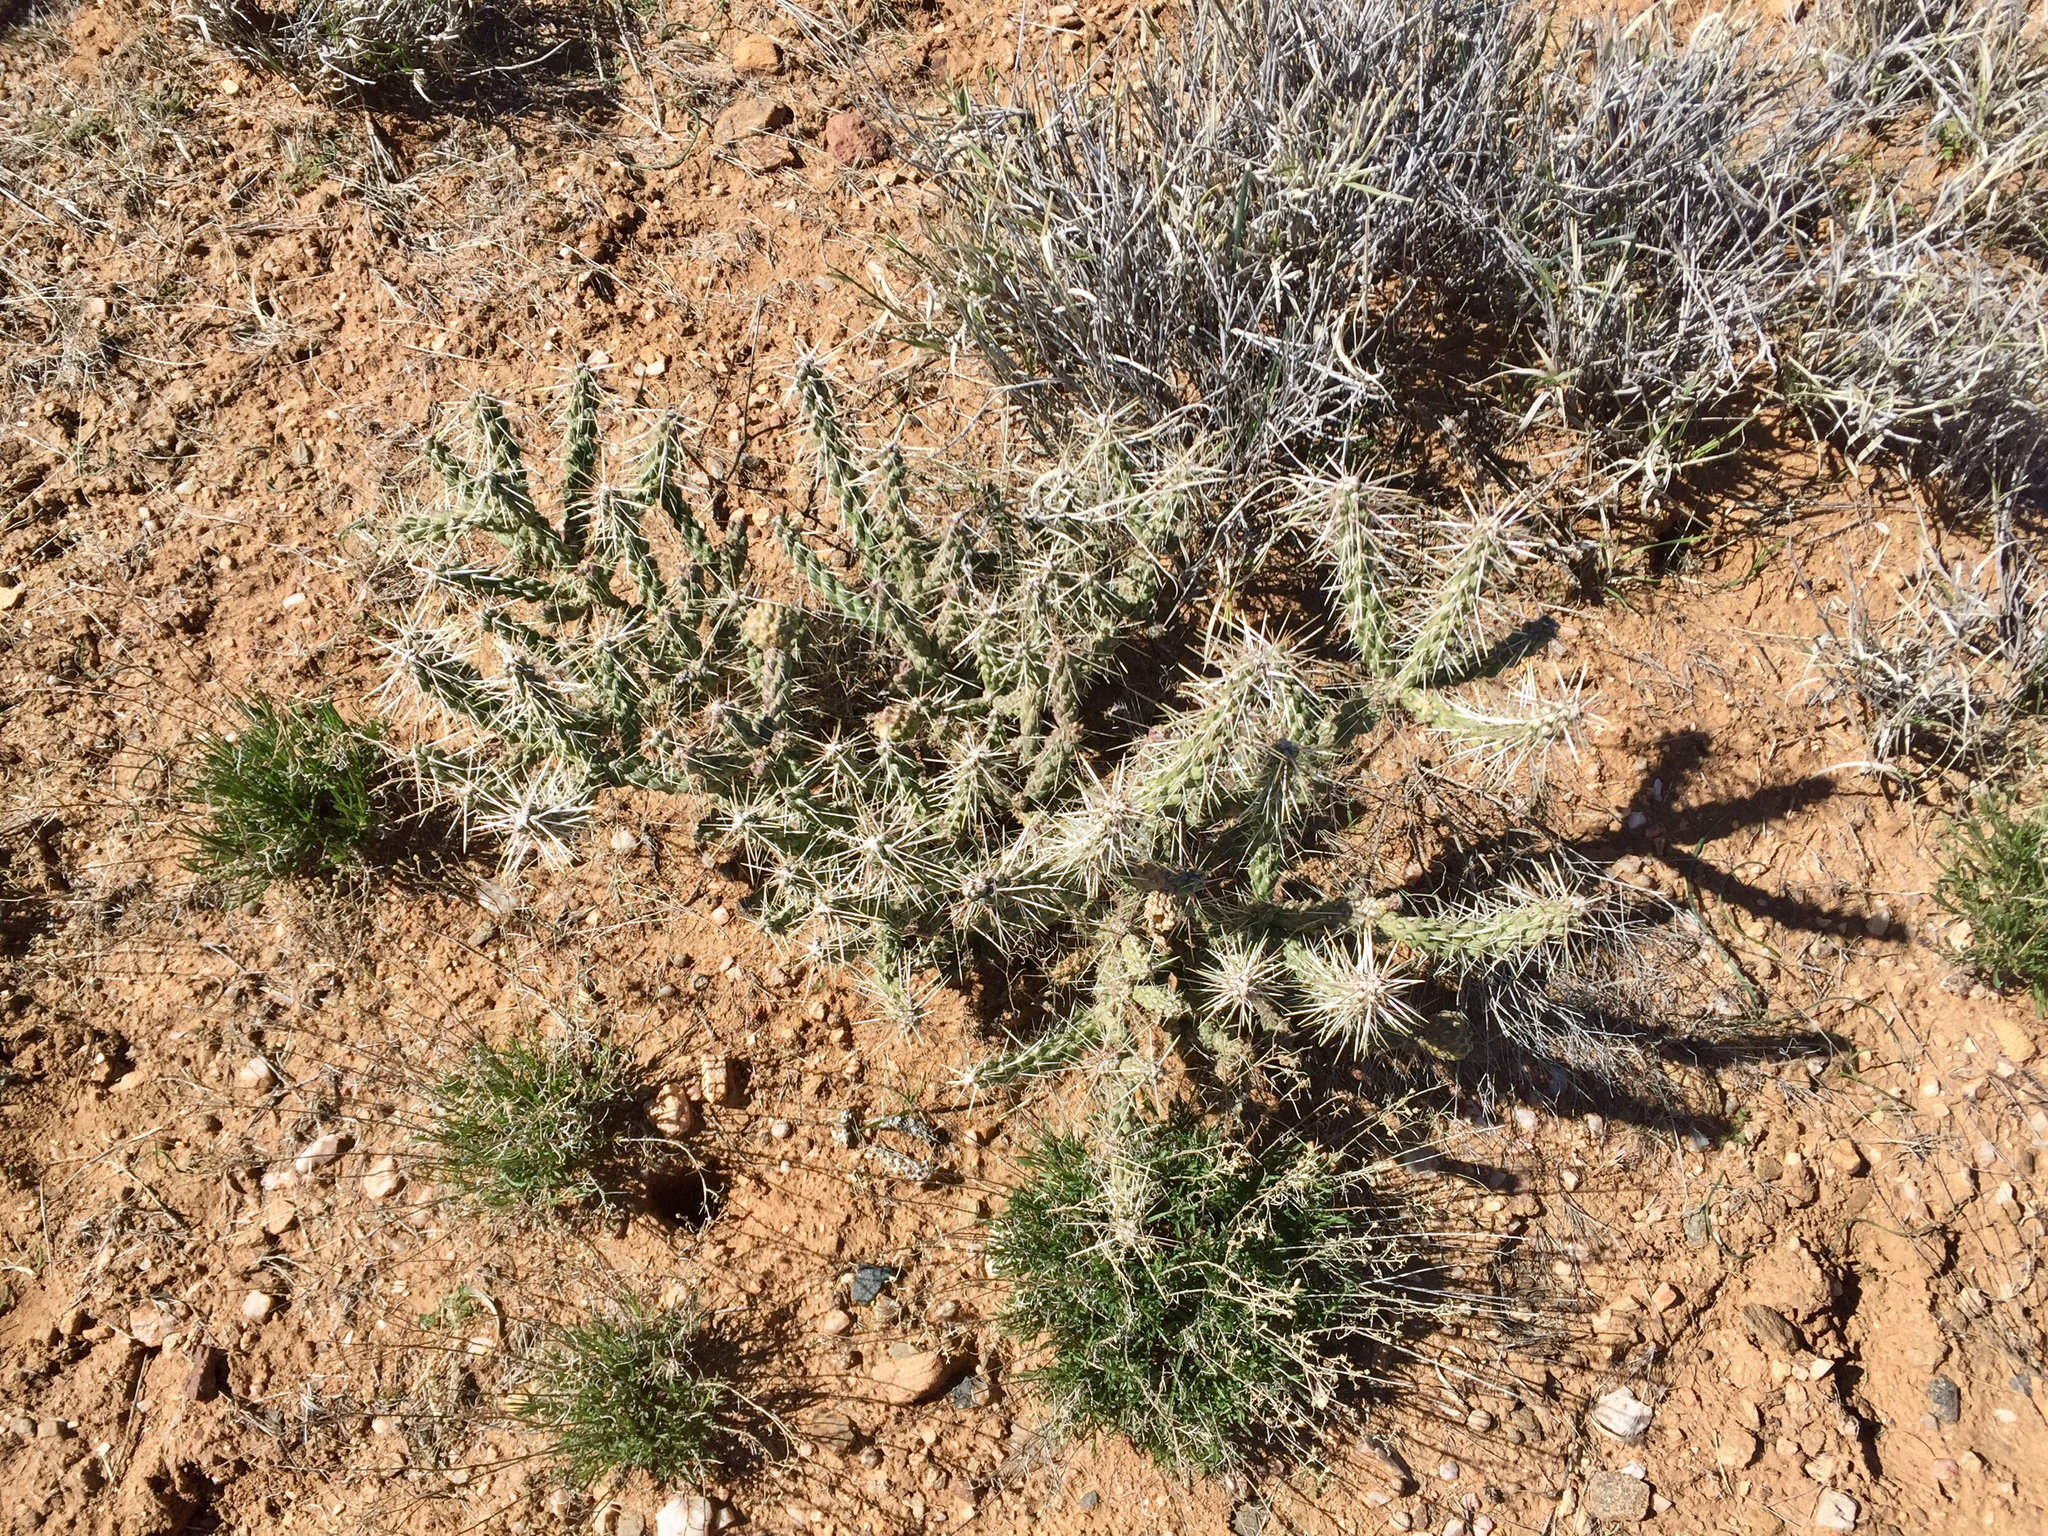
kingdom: Plantae
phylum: Tracheophyta
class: Magnoliopsida
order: Caryophyllales
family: Cactaceae
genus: Cylindropuntia
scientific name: Cylindropuntia whipplei
